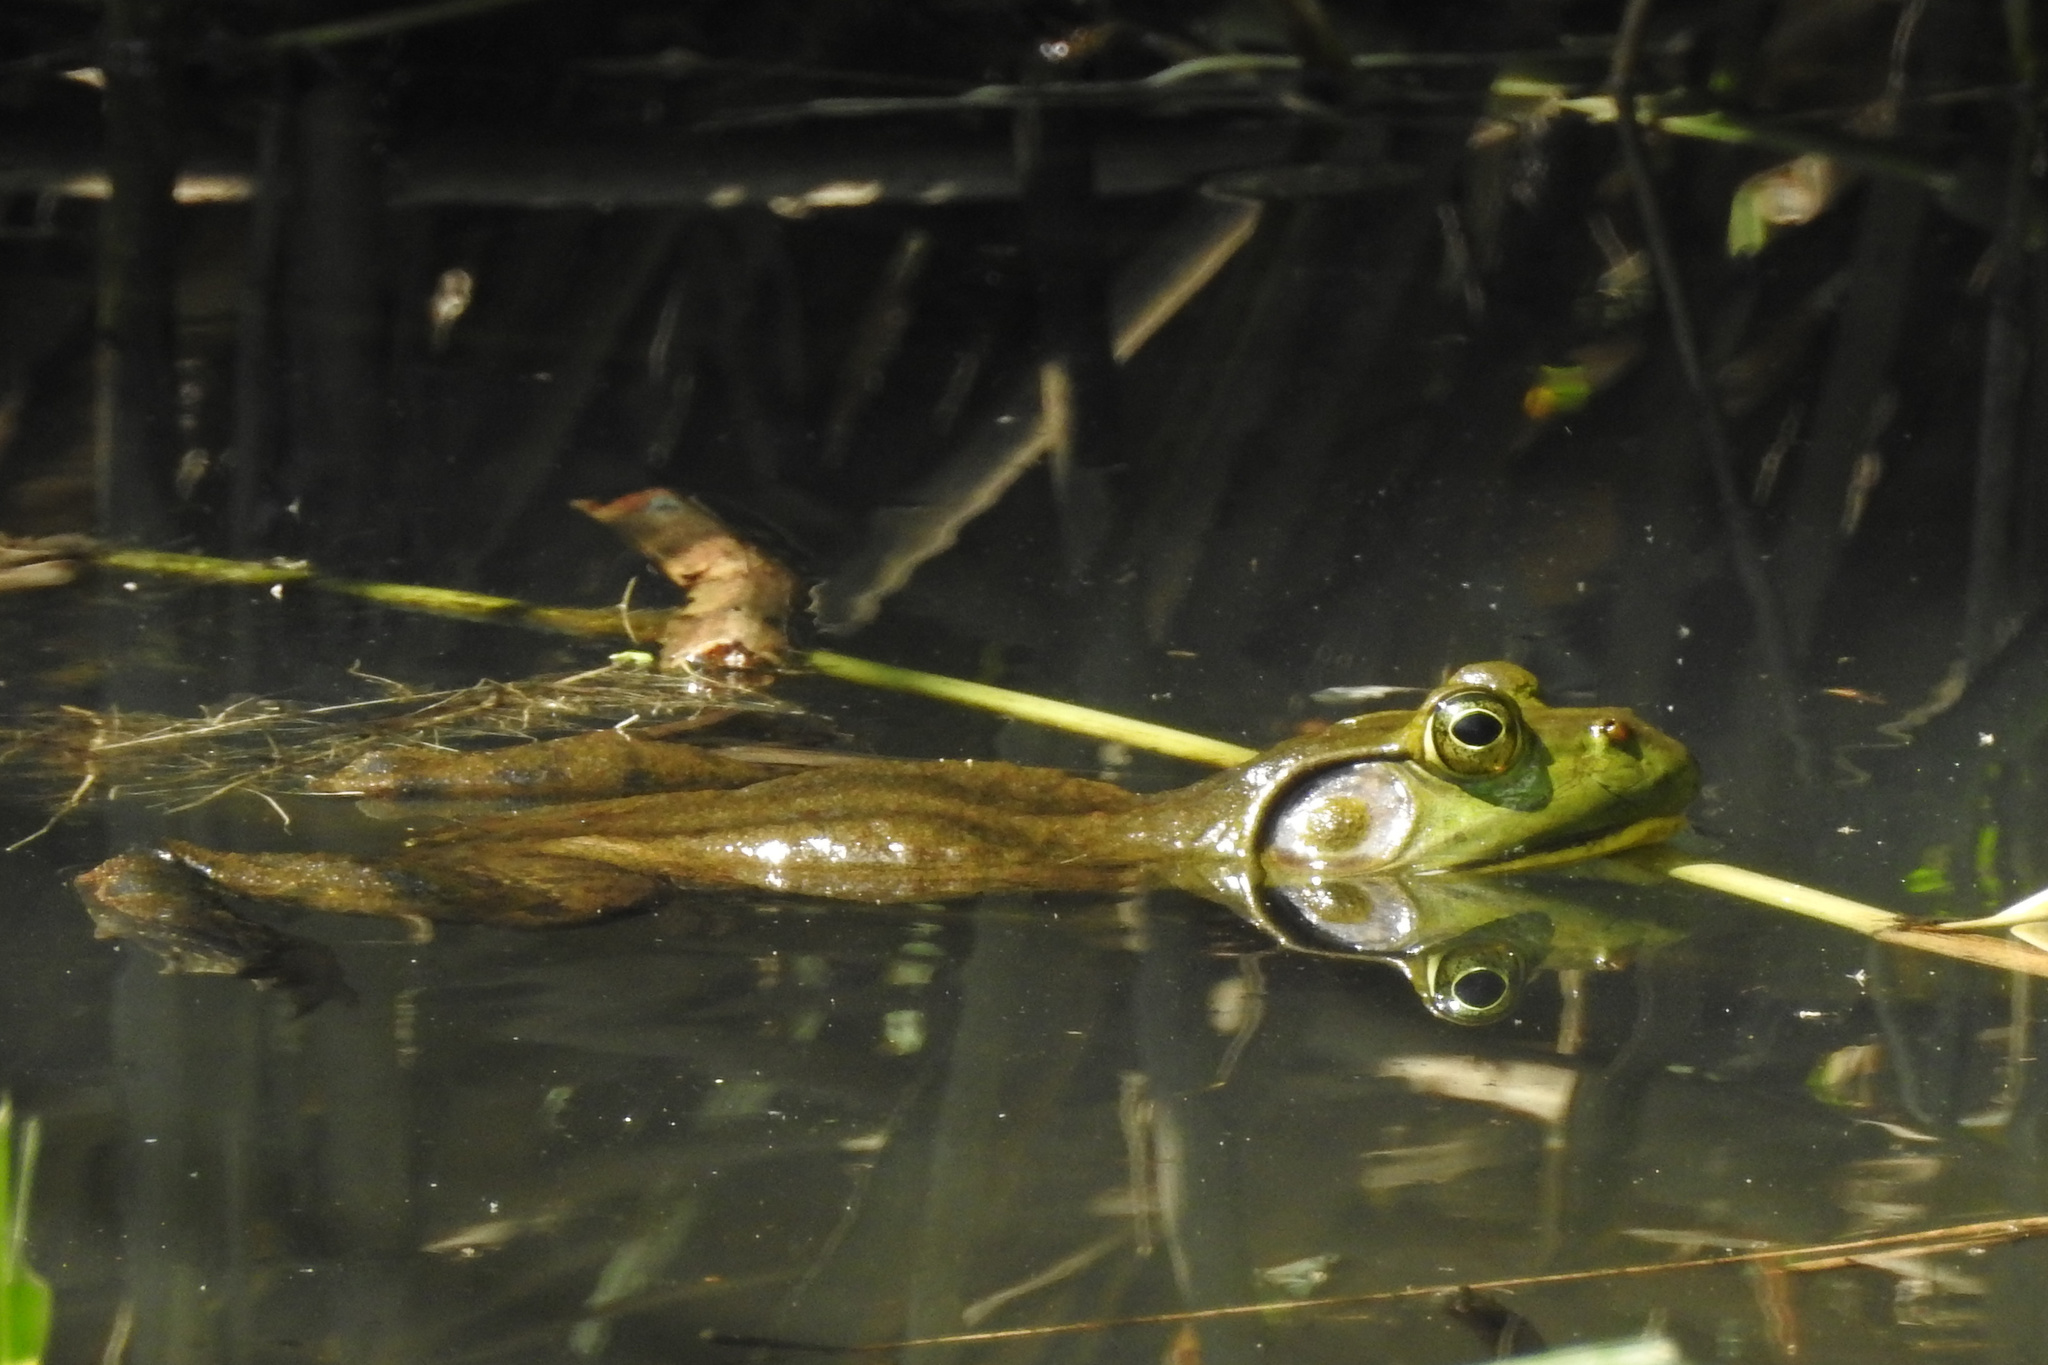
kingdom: Animalia
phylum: Chordata
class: Amphibia
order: Anura
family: Ranidae
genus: Lithobates
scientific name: Lithobates catesbeianus
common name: American bullfrog
